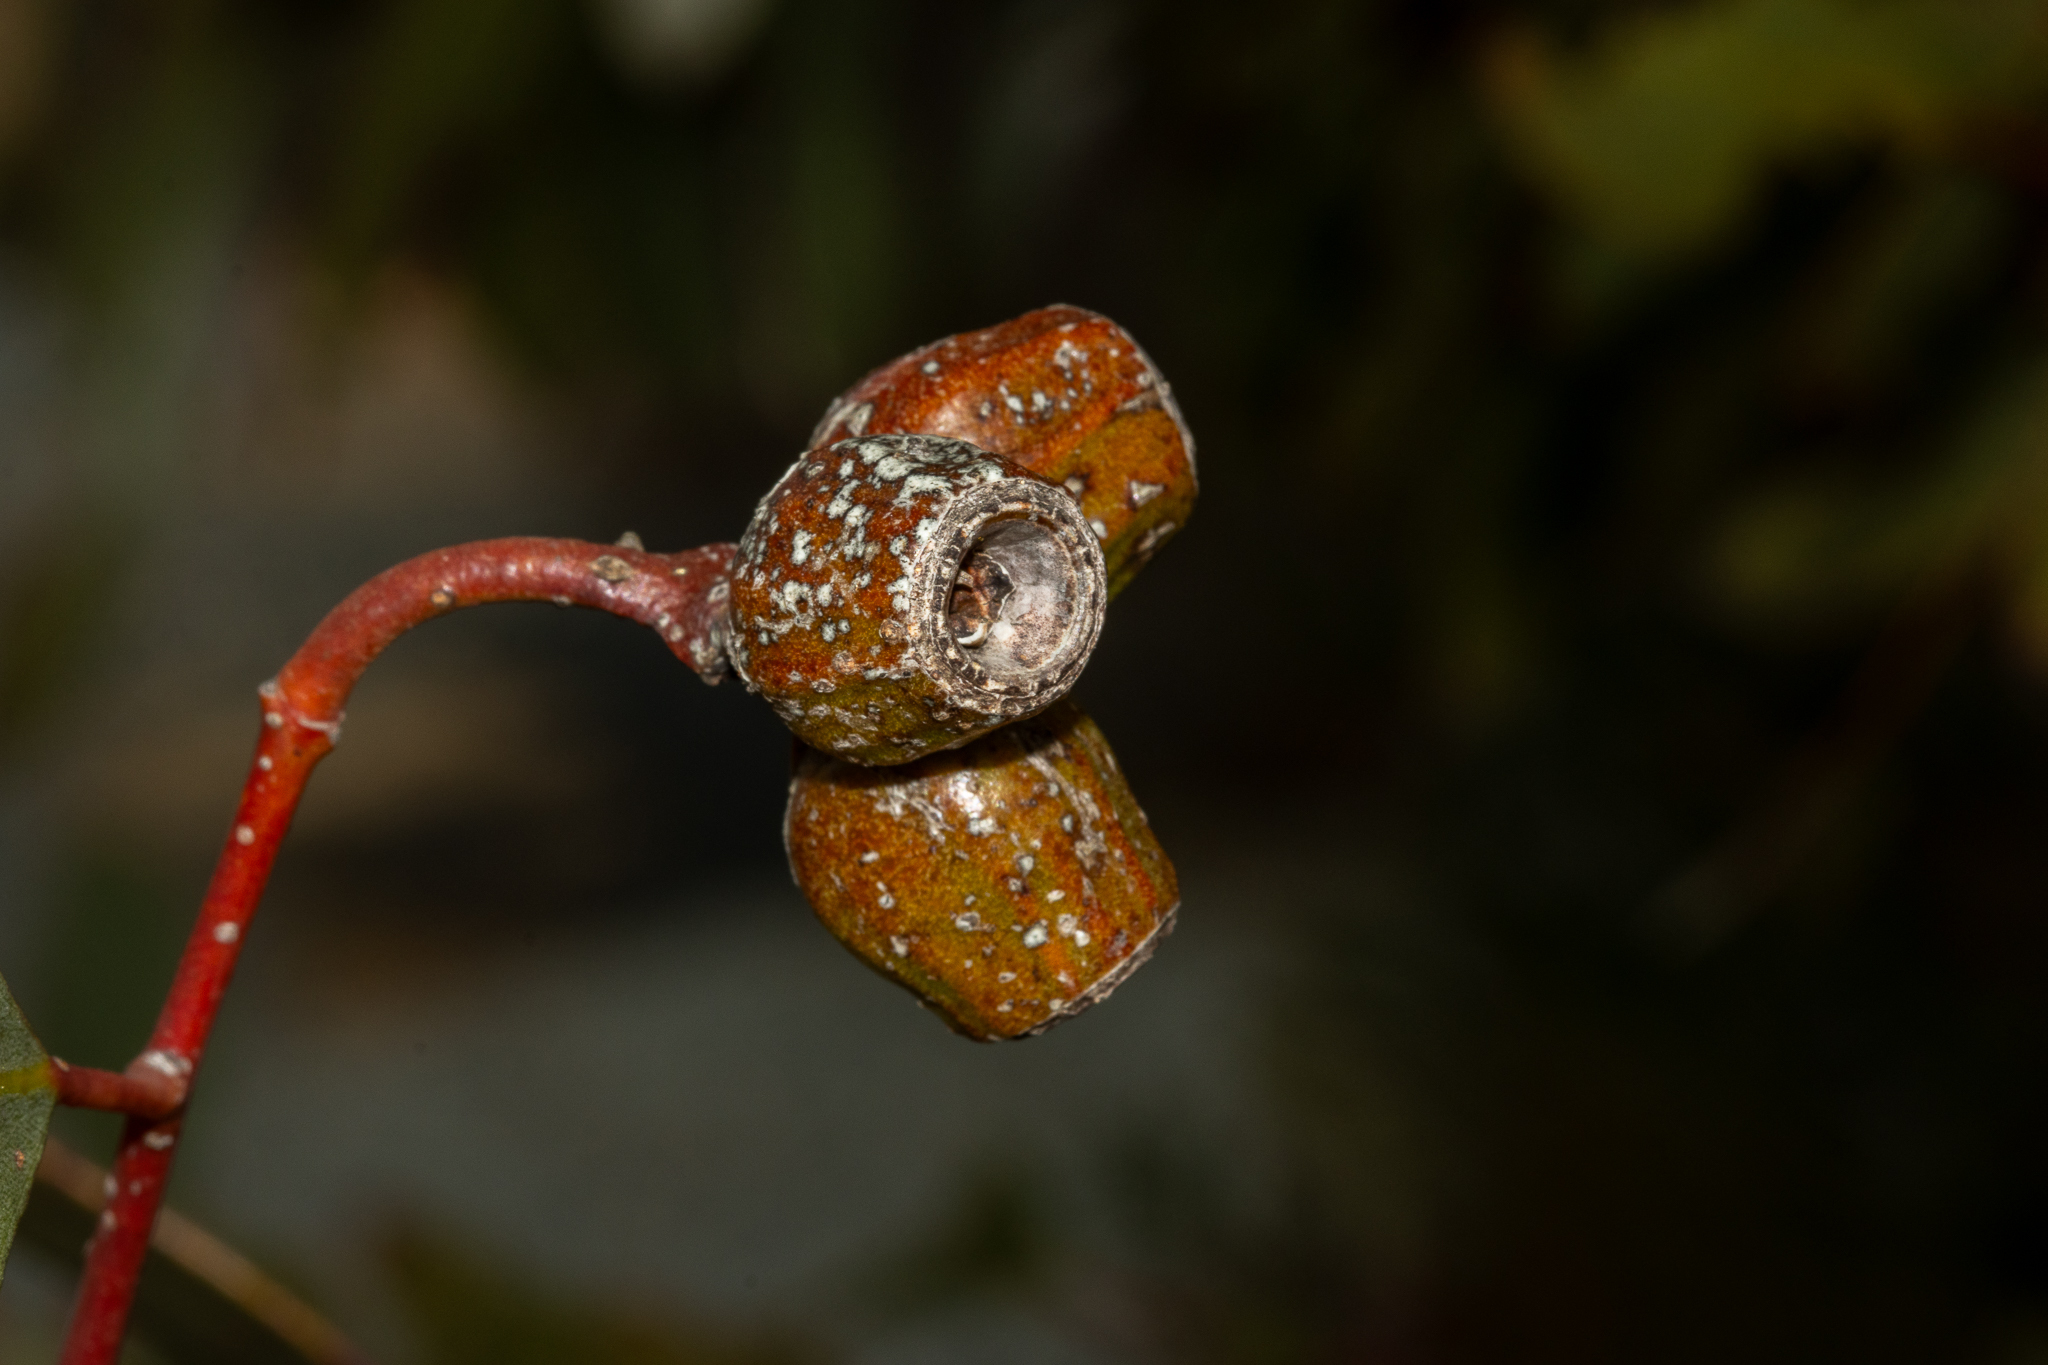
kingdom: Plantae
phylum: Tracheophyta
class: Magnoliopsida
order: Myrtales
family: Myrtaceae
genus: Eucalyptus
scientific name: Eucalyptus incrassata
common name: Ridge-fruit mallee
